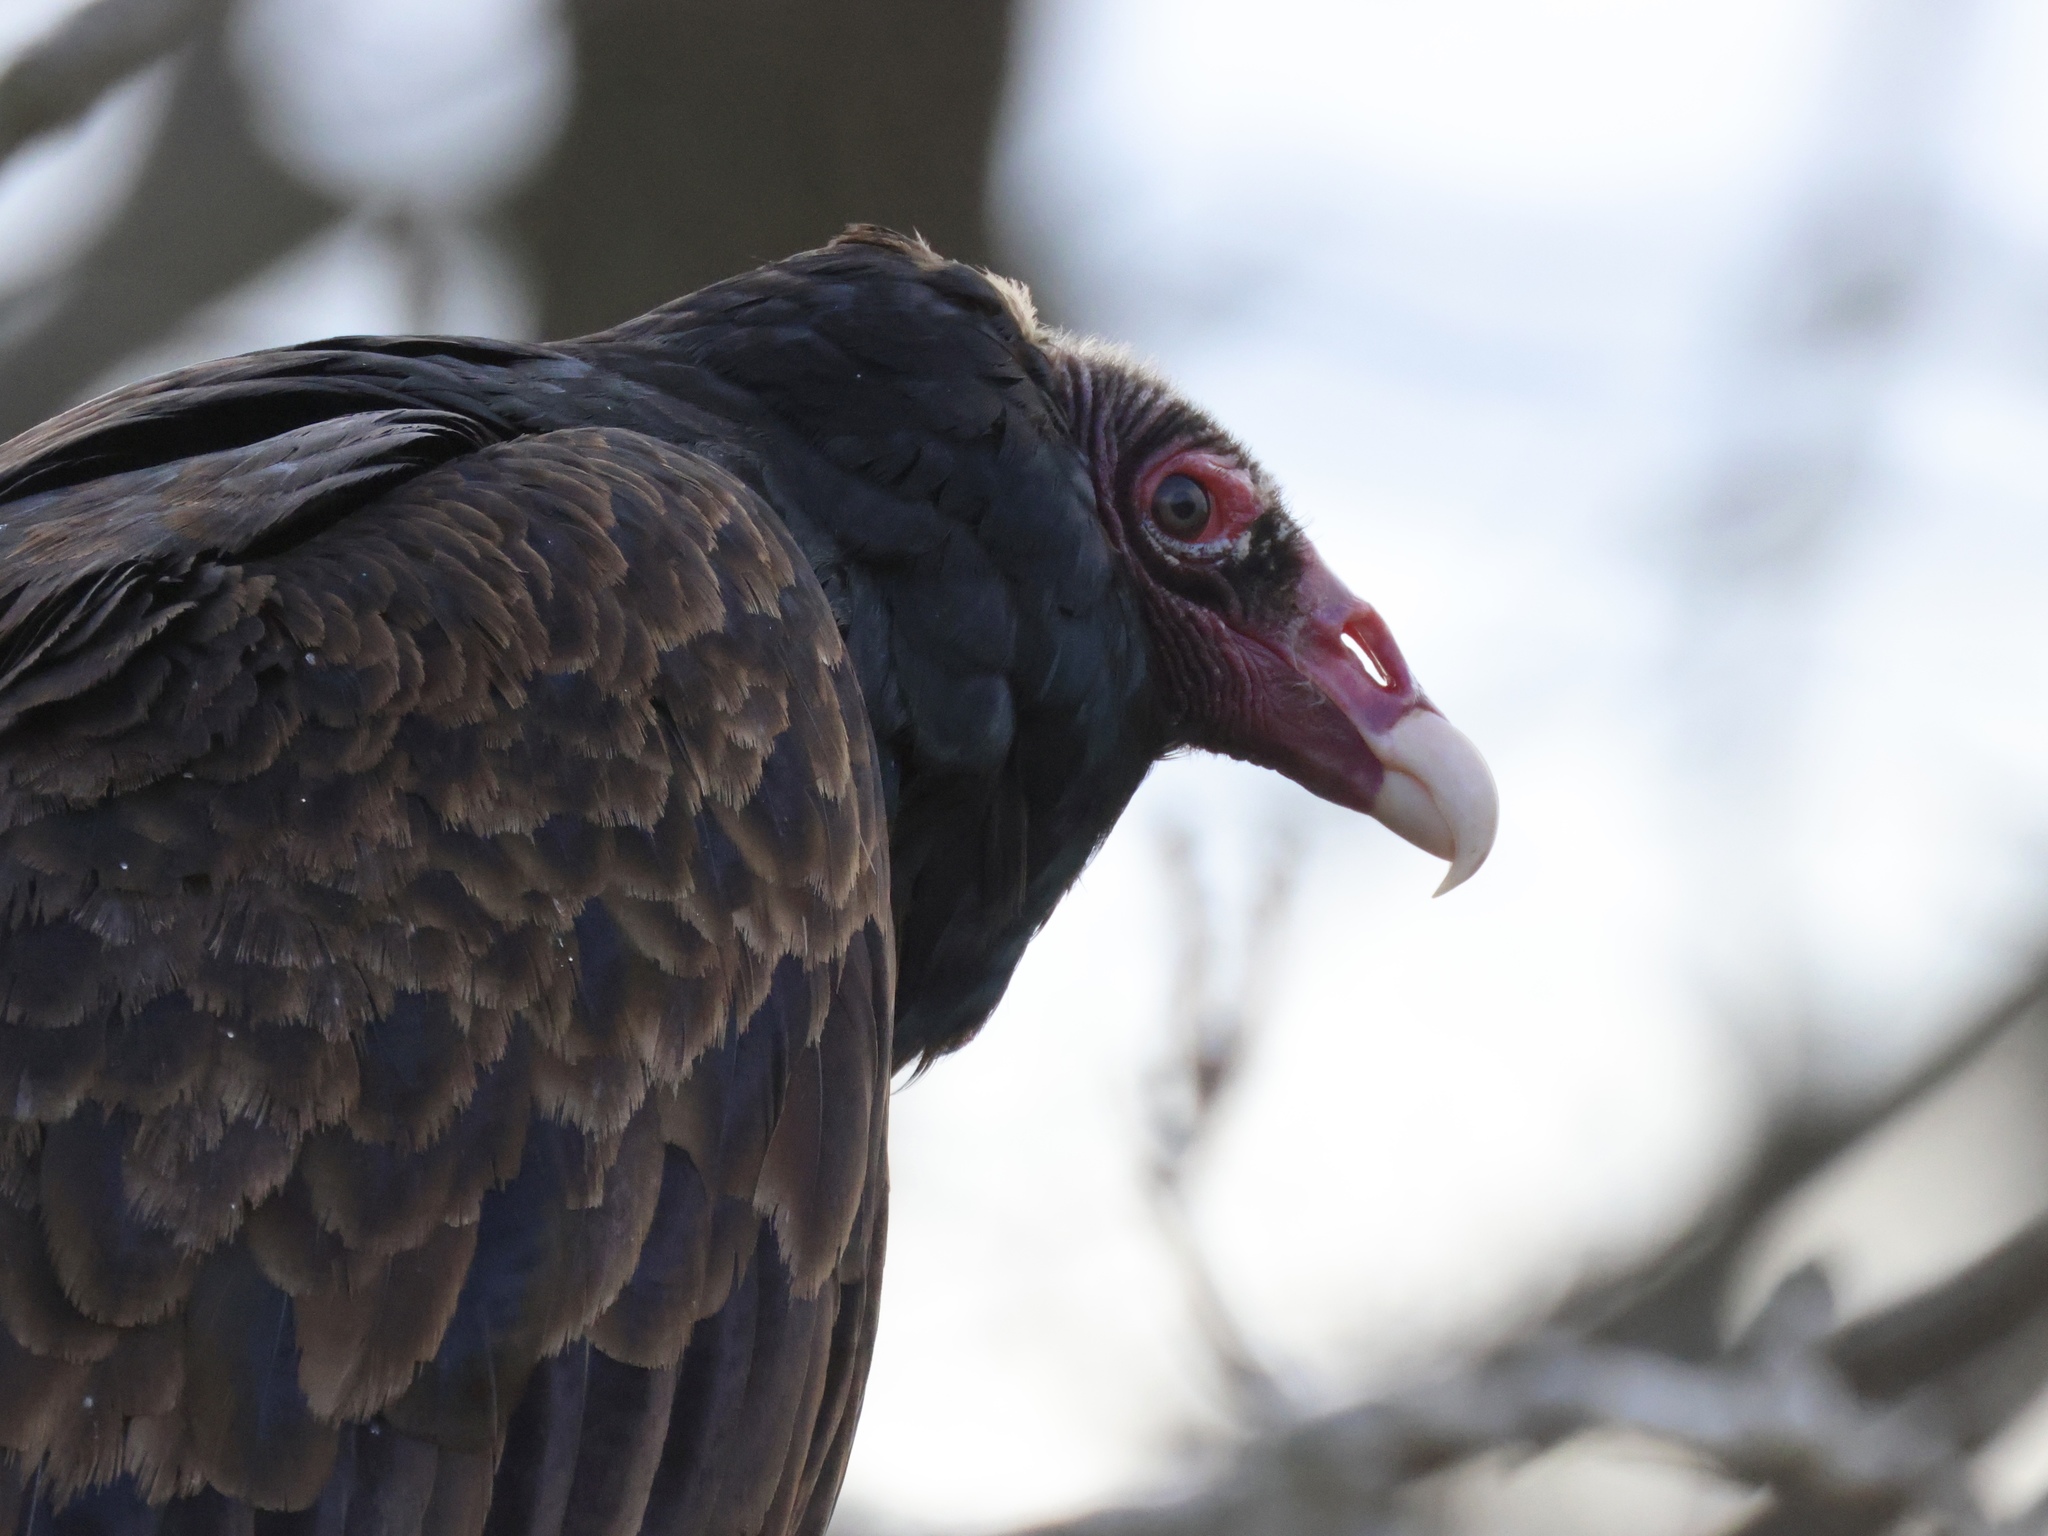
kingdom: Animalia
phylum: Chordata
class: Aves
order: Accipitriformes
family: Cathartidae
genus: Cathartes
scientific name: Cathartes aura
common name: Turkey vulture
